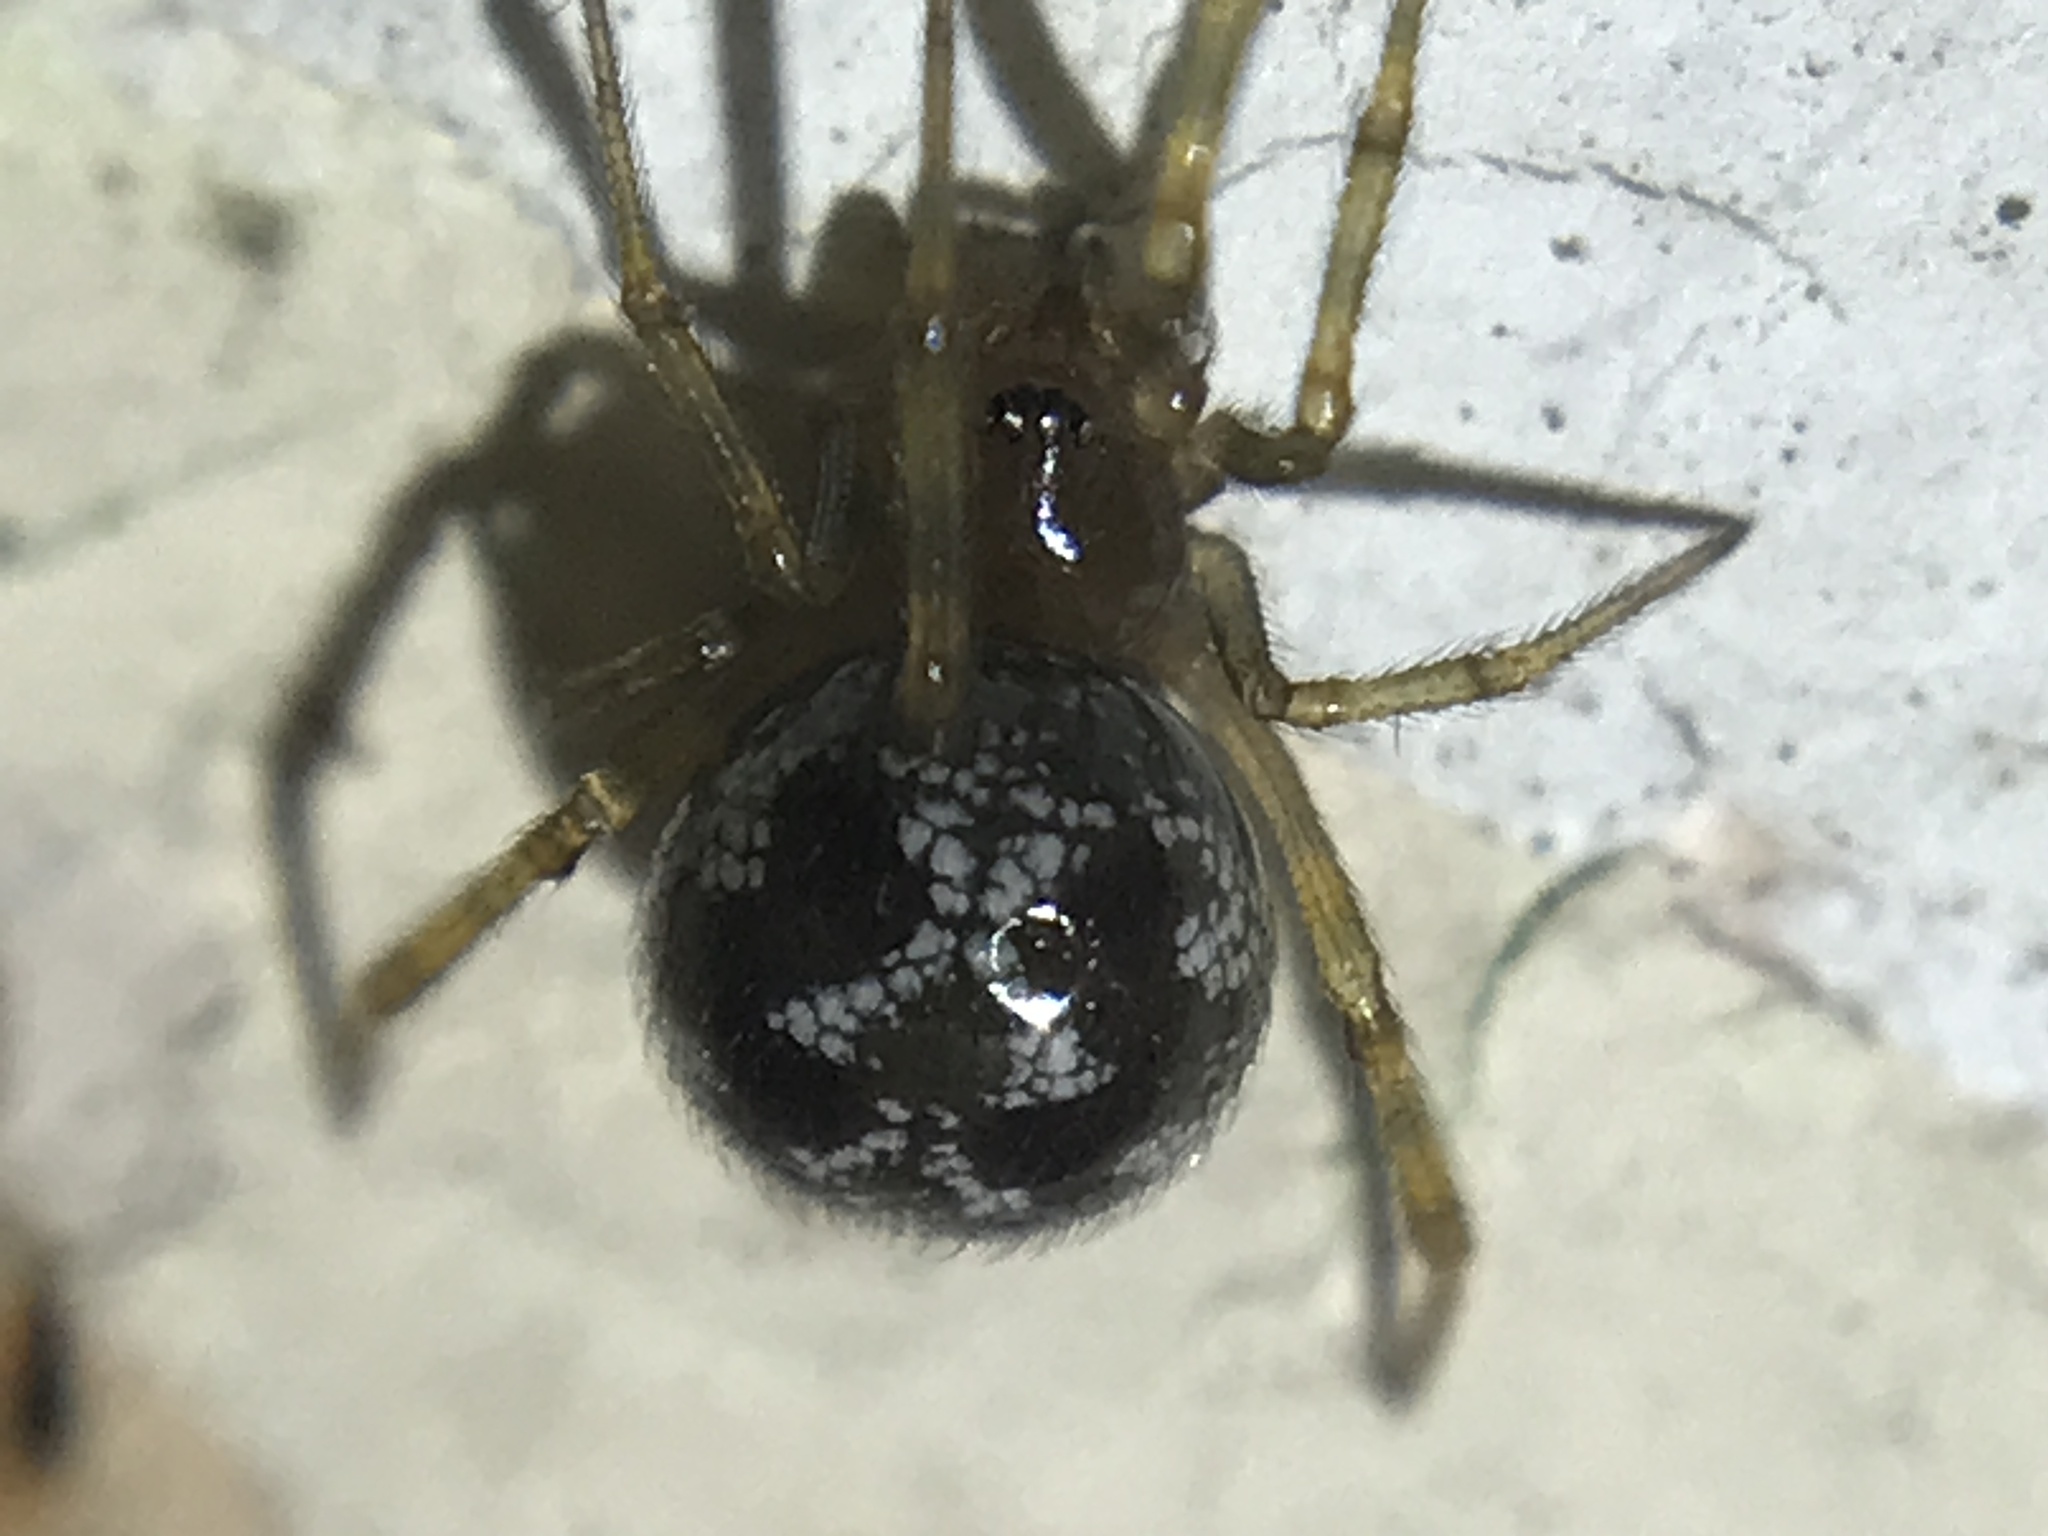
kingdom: Animalia
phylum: Arthropoda
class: Arachnida
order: Araneae
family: Theridiidae
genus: Steatoda
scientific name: Steatoda triangulosa
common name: Triangulate bud spider
